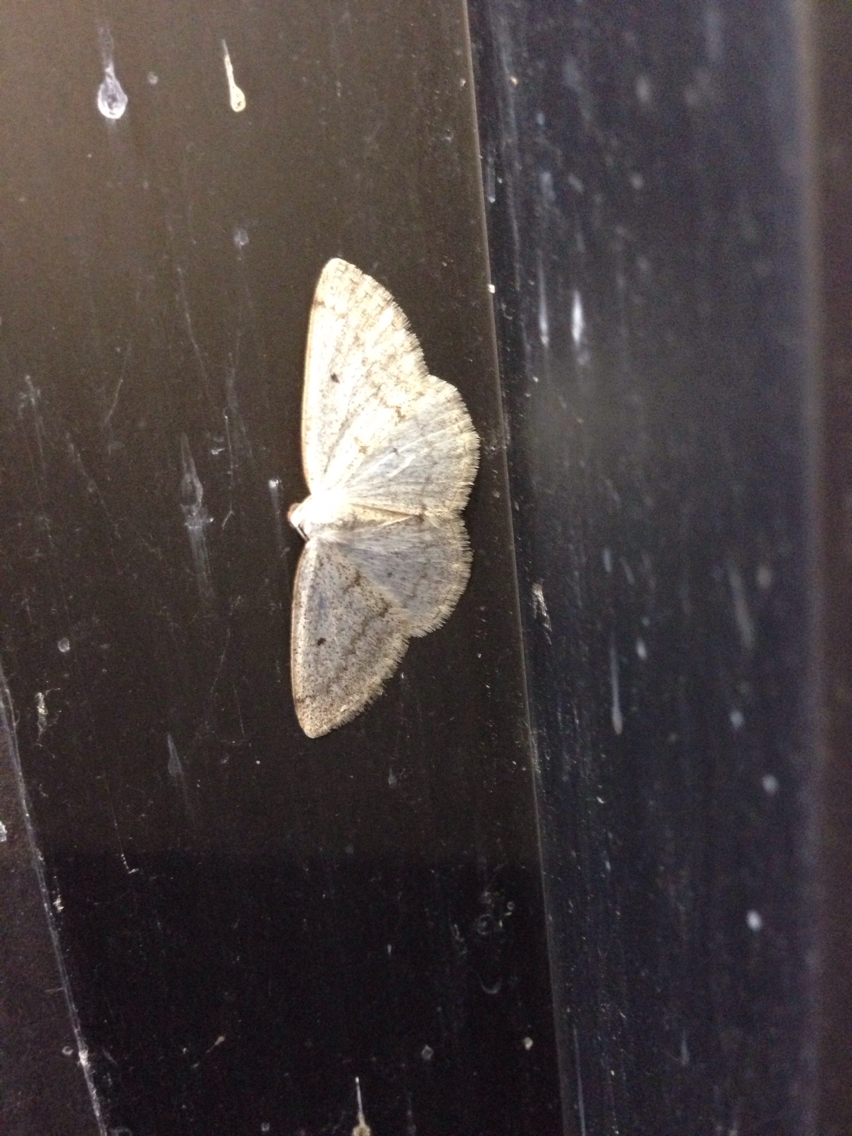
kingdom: Animalia
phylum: Arthropoda
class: Insecta
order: Lepidoptera
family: Geometridae
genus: Lomographa
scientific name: Lomographa glomeraria
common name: Gray spring moth
